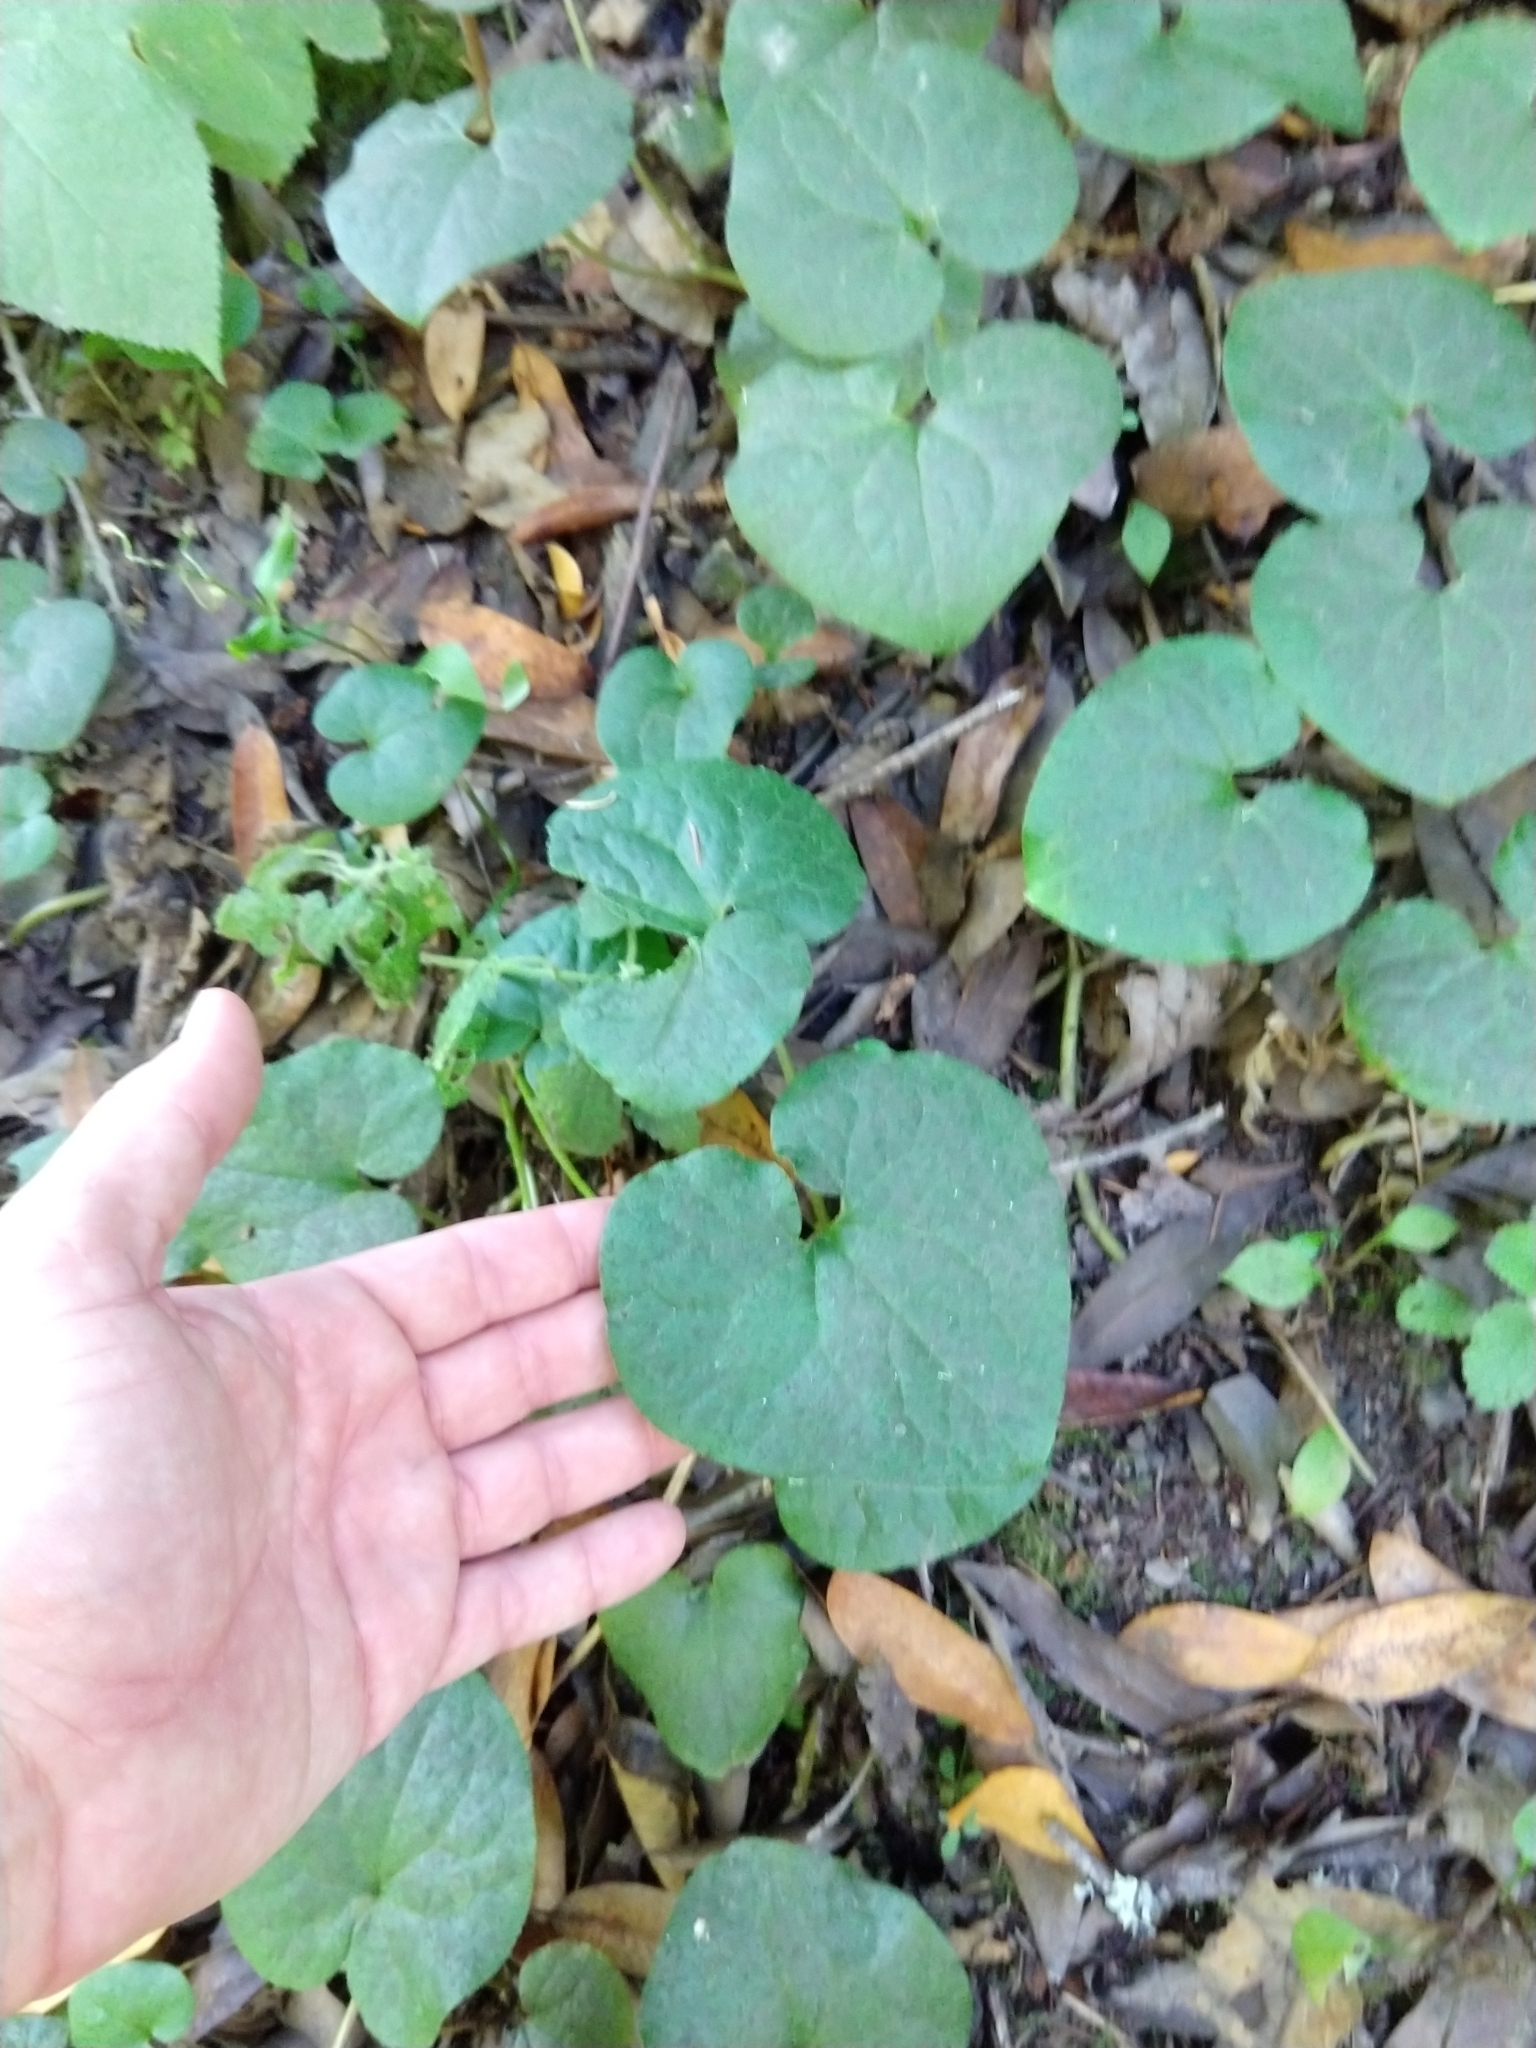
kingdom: Plantae
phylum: Tracheophyta
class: Magnoliopsida
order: Piperales
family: Aristolochiaceae
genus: Asarum
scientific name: Asarum caudatum
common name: Wild ginger
